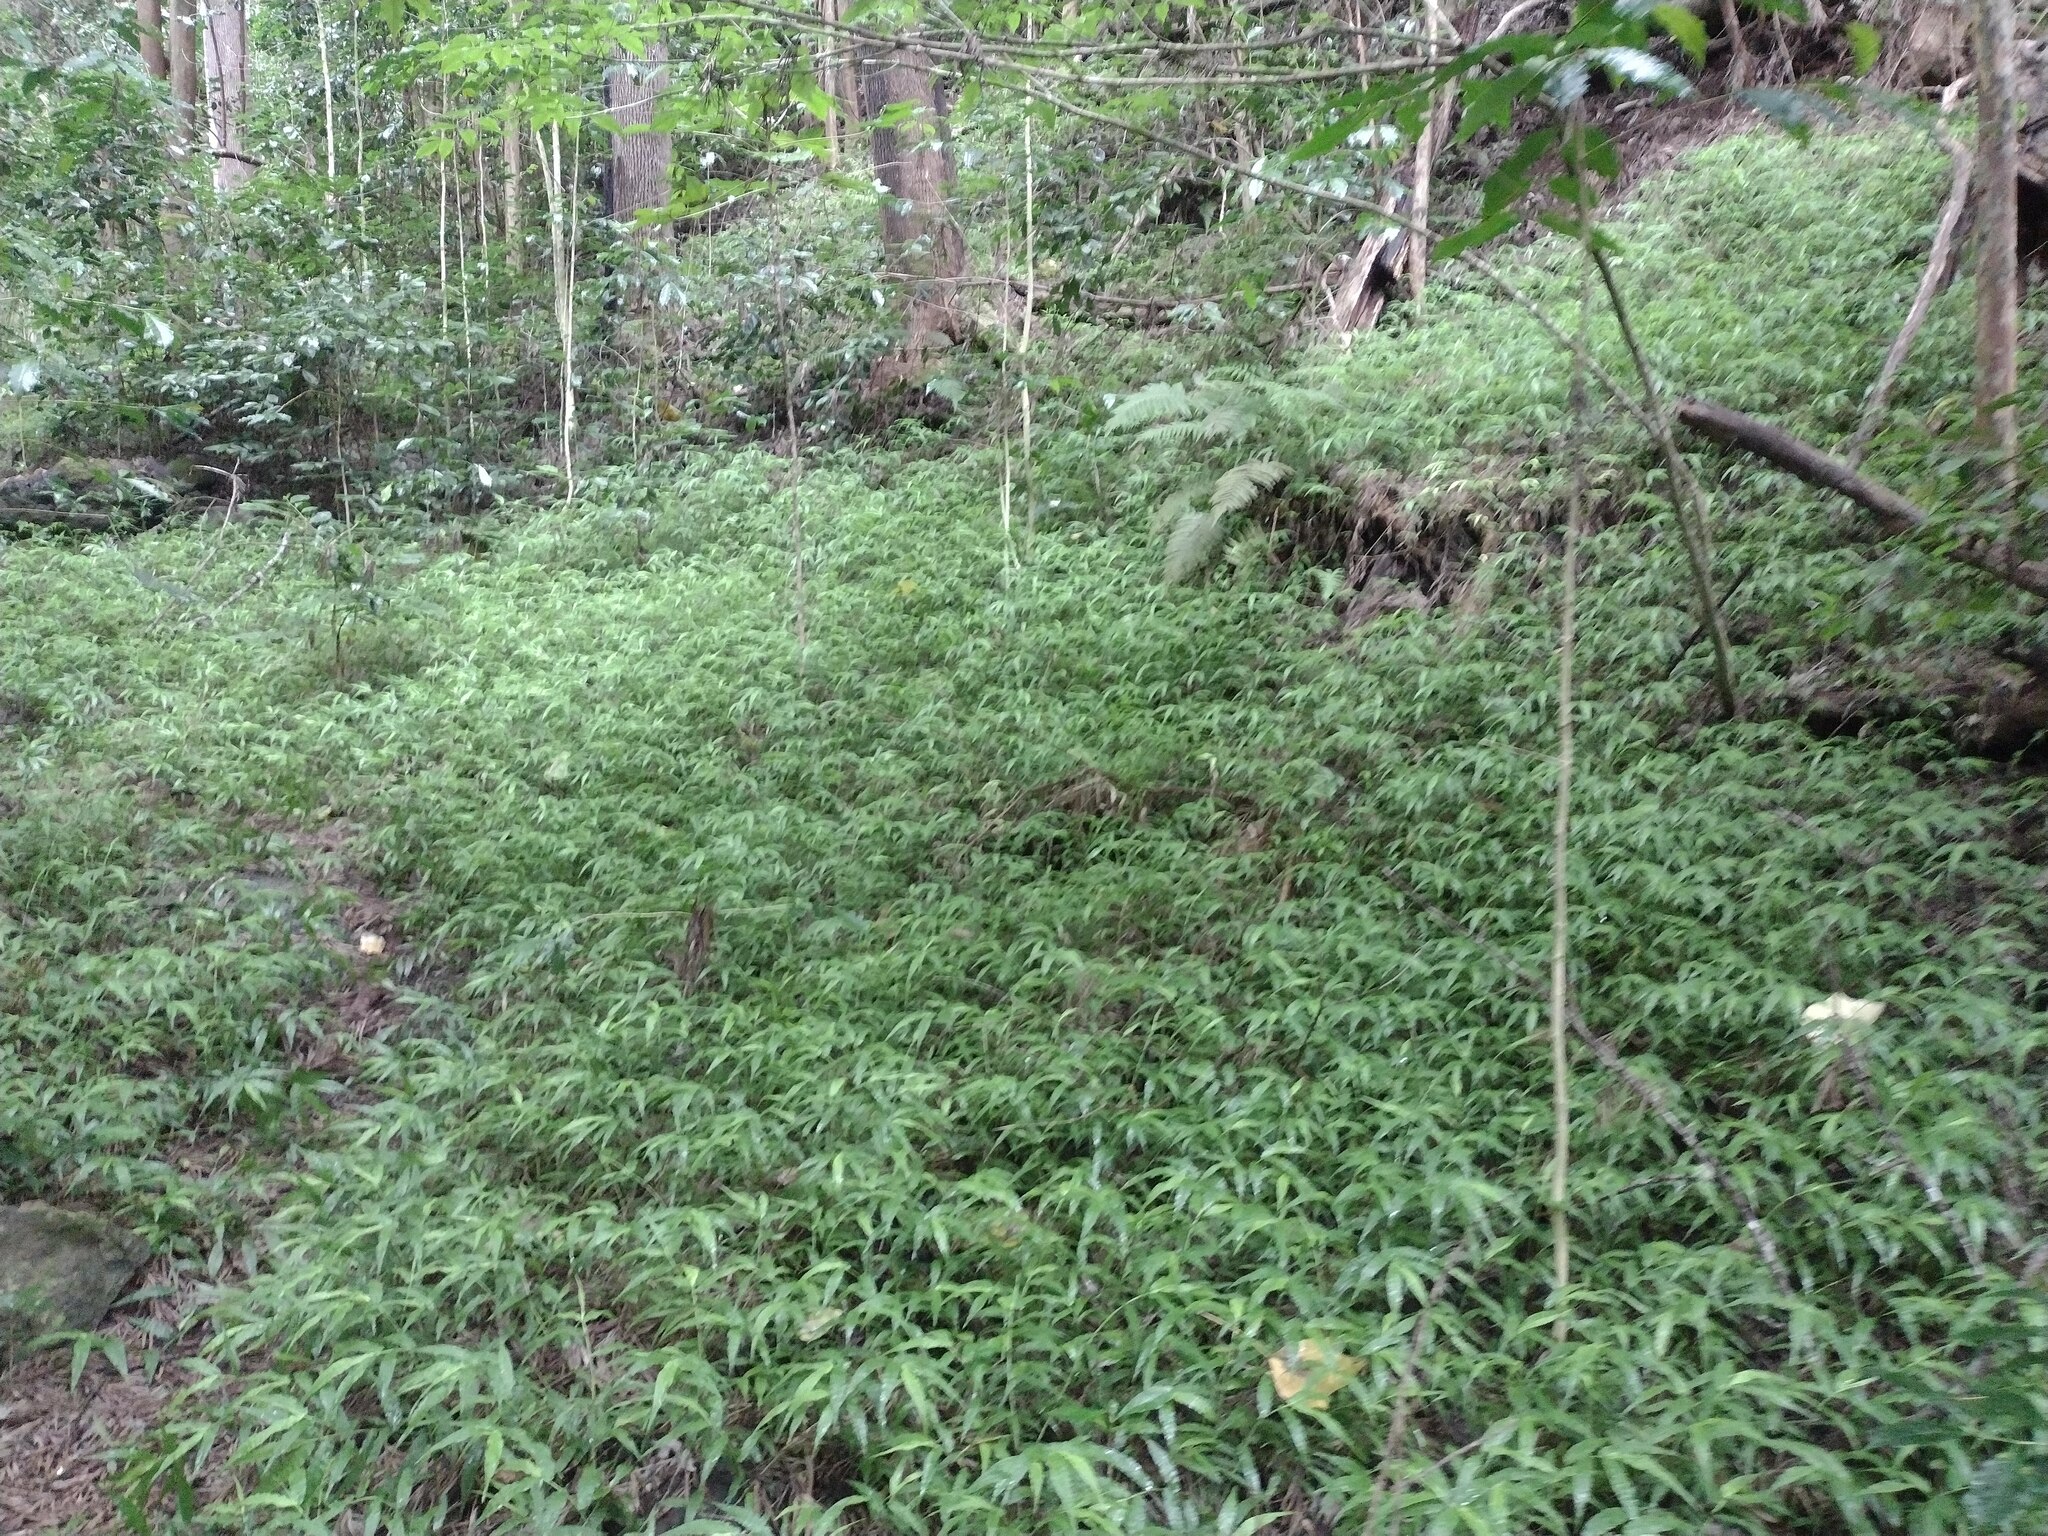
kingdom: Plantae
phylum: Tracheophyta
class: Liliopsida
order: Poales
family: Poaceae
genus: Oplismenus
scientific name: Oplismenus hirtellus
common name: Basketgrass
